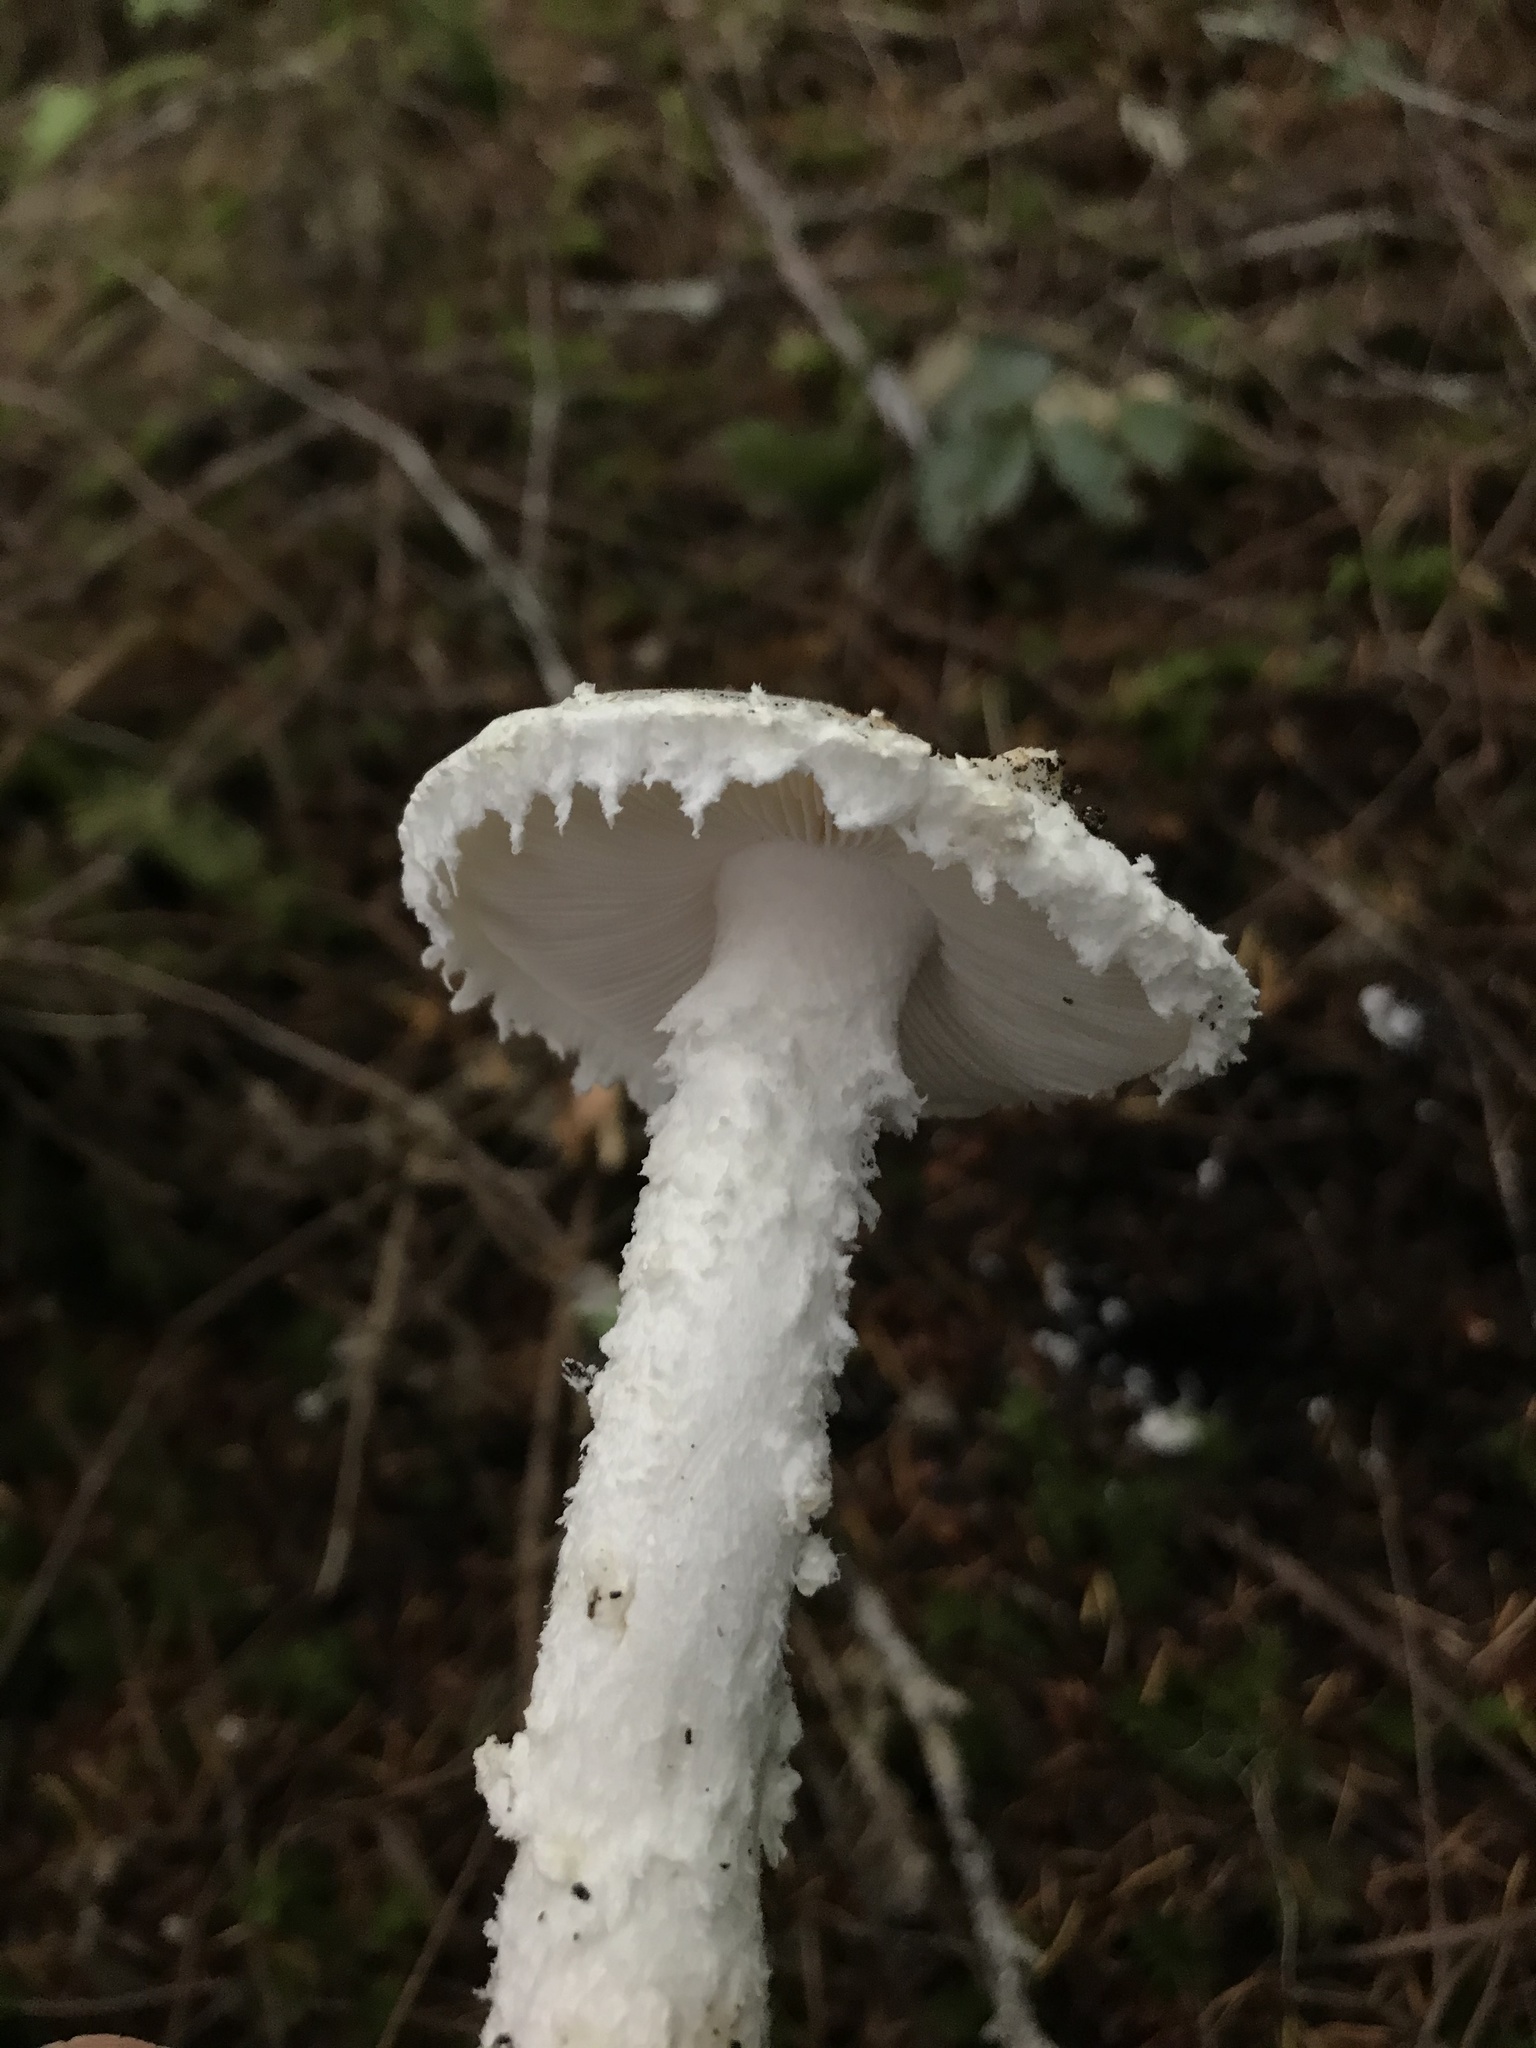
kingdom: Fungi
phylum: Basidiomycota
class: Agaricomycetes
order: Agaricales
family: Amanitaceae
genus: Amanita
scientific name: Amanita smithiana
